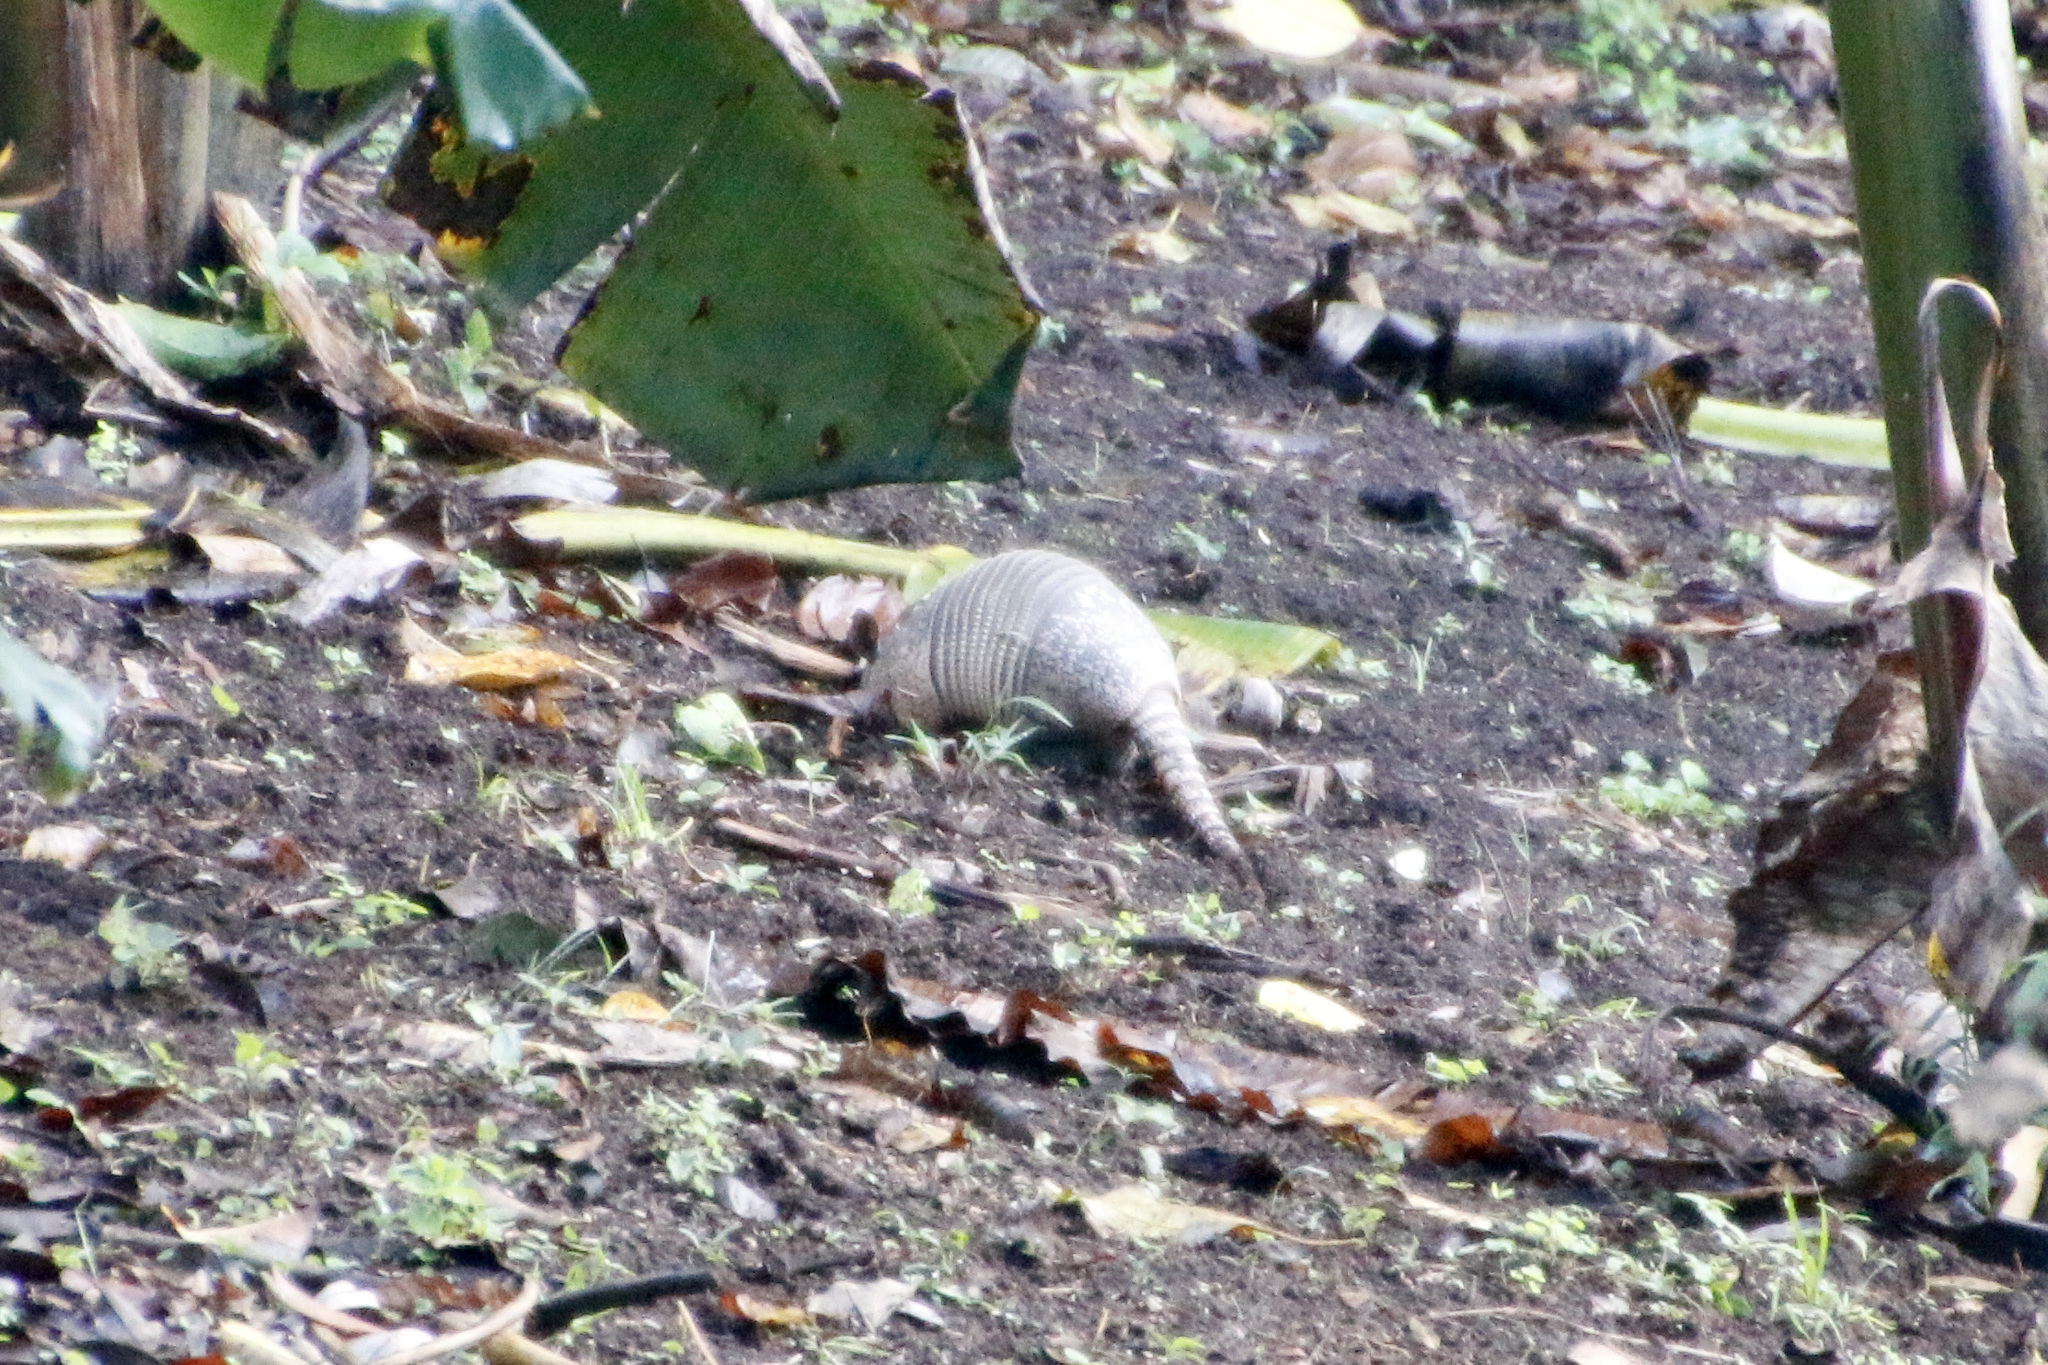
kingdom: Animalia
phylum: Chordata
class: Mammalia
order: Cingulata
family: Dasypodidae
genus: Dasypus
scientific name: Dasypus novemcinctus
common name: Nine-banded armadillo
